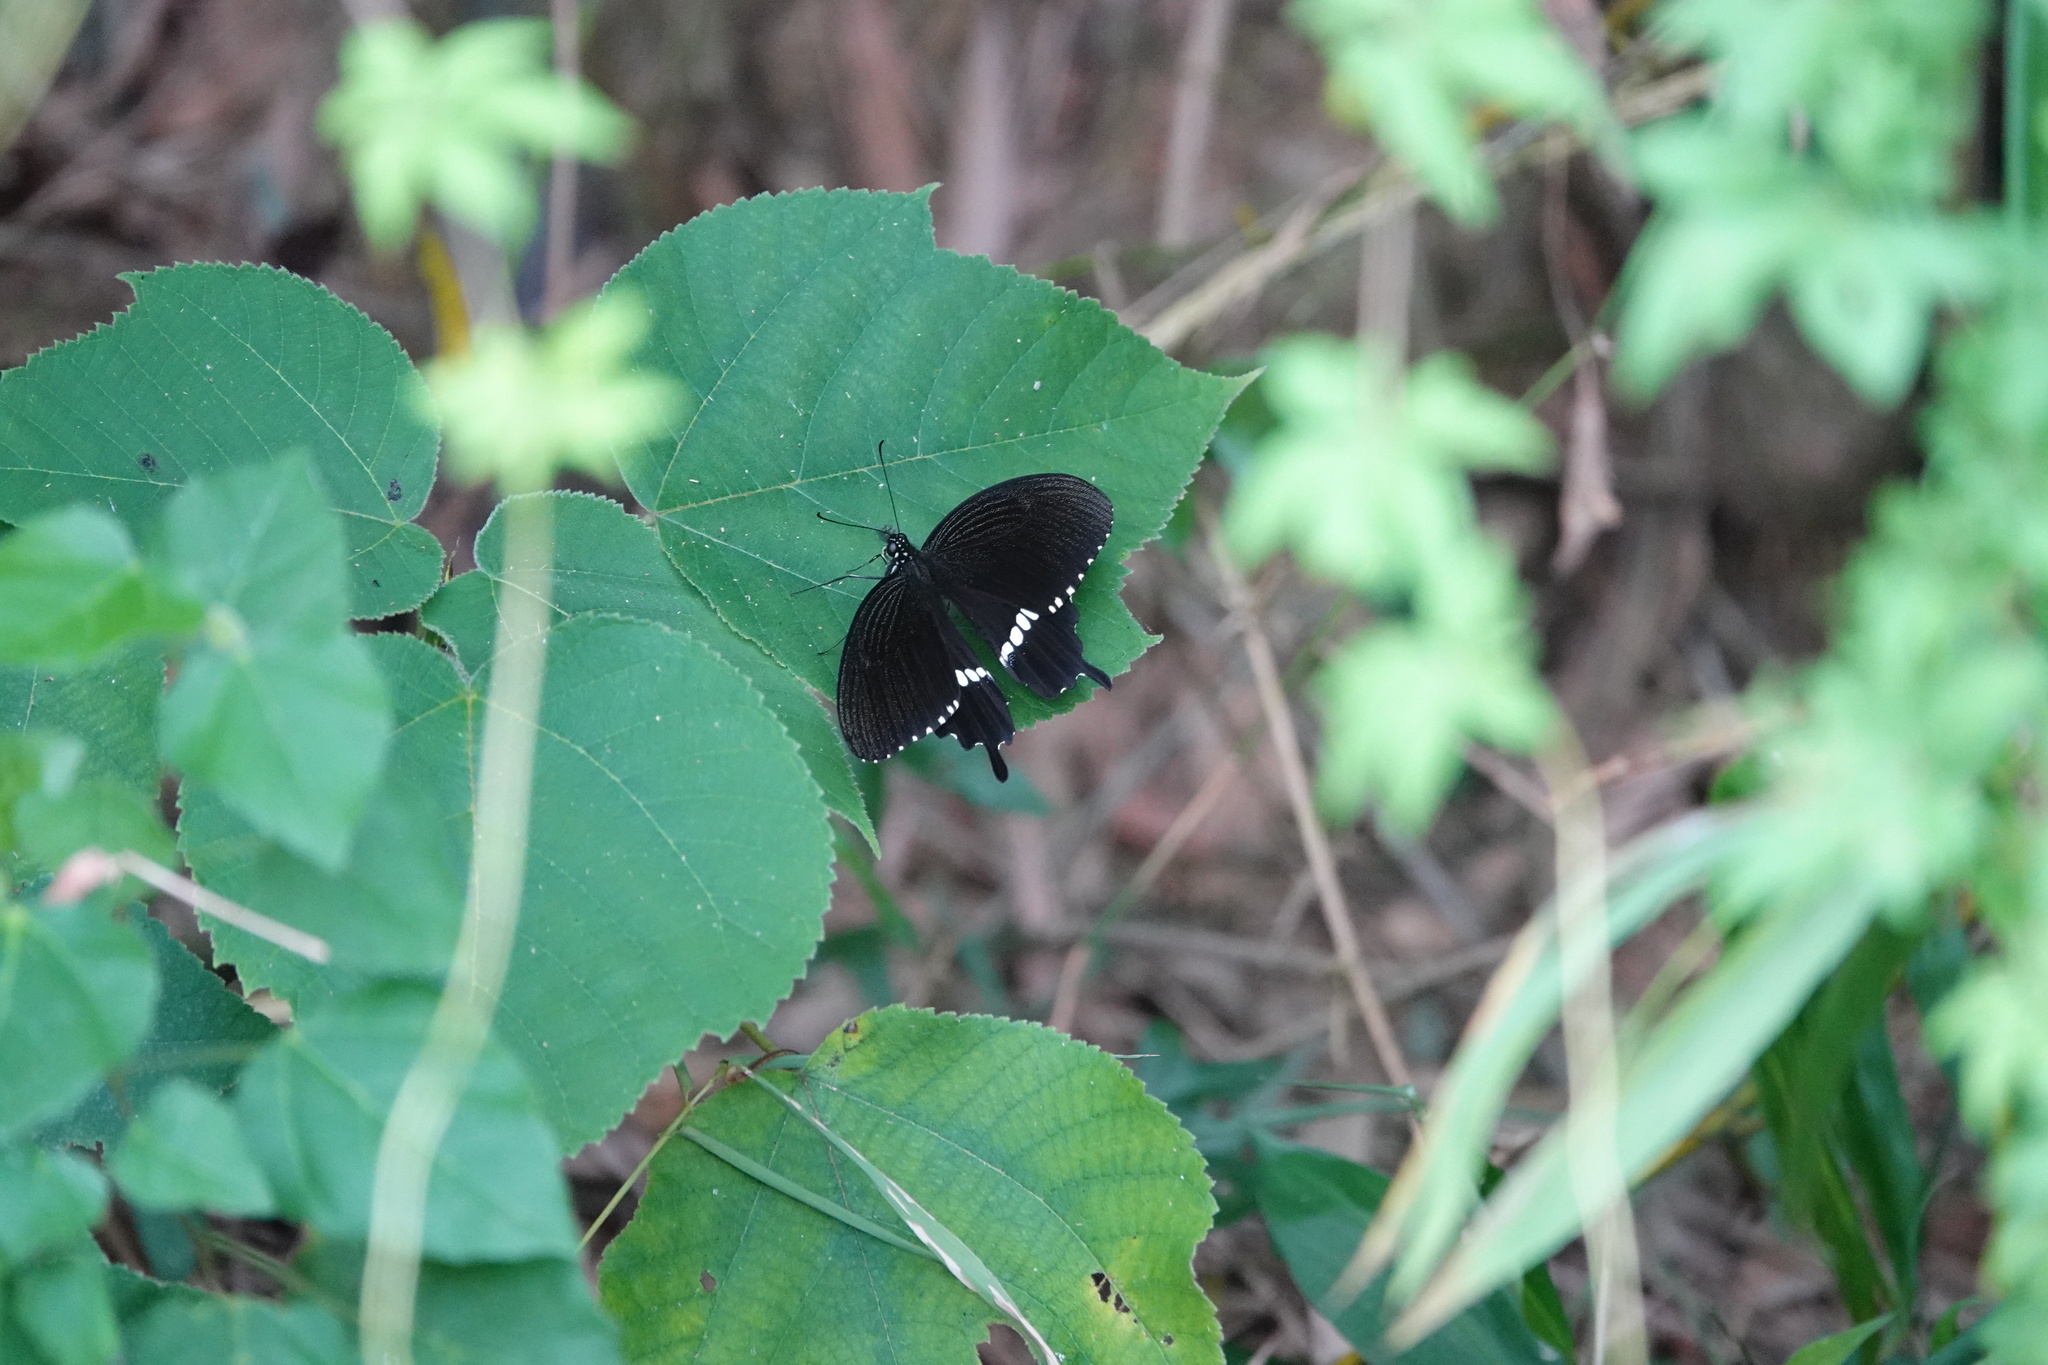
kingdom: Animalia
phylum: Arthropoda
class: Insecta
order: Lepidoptera
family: Papilionidae
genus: Papilio
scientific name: Papilio polytes
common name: Common mormon
